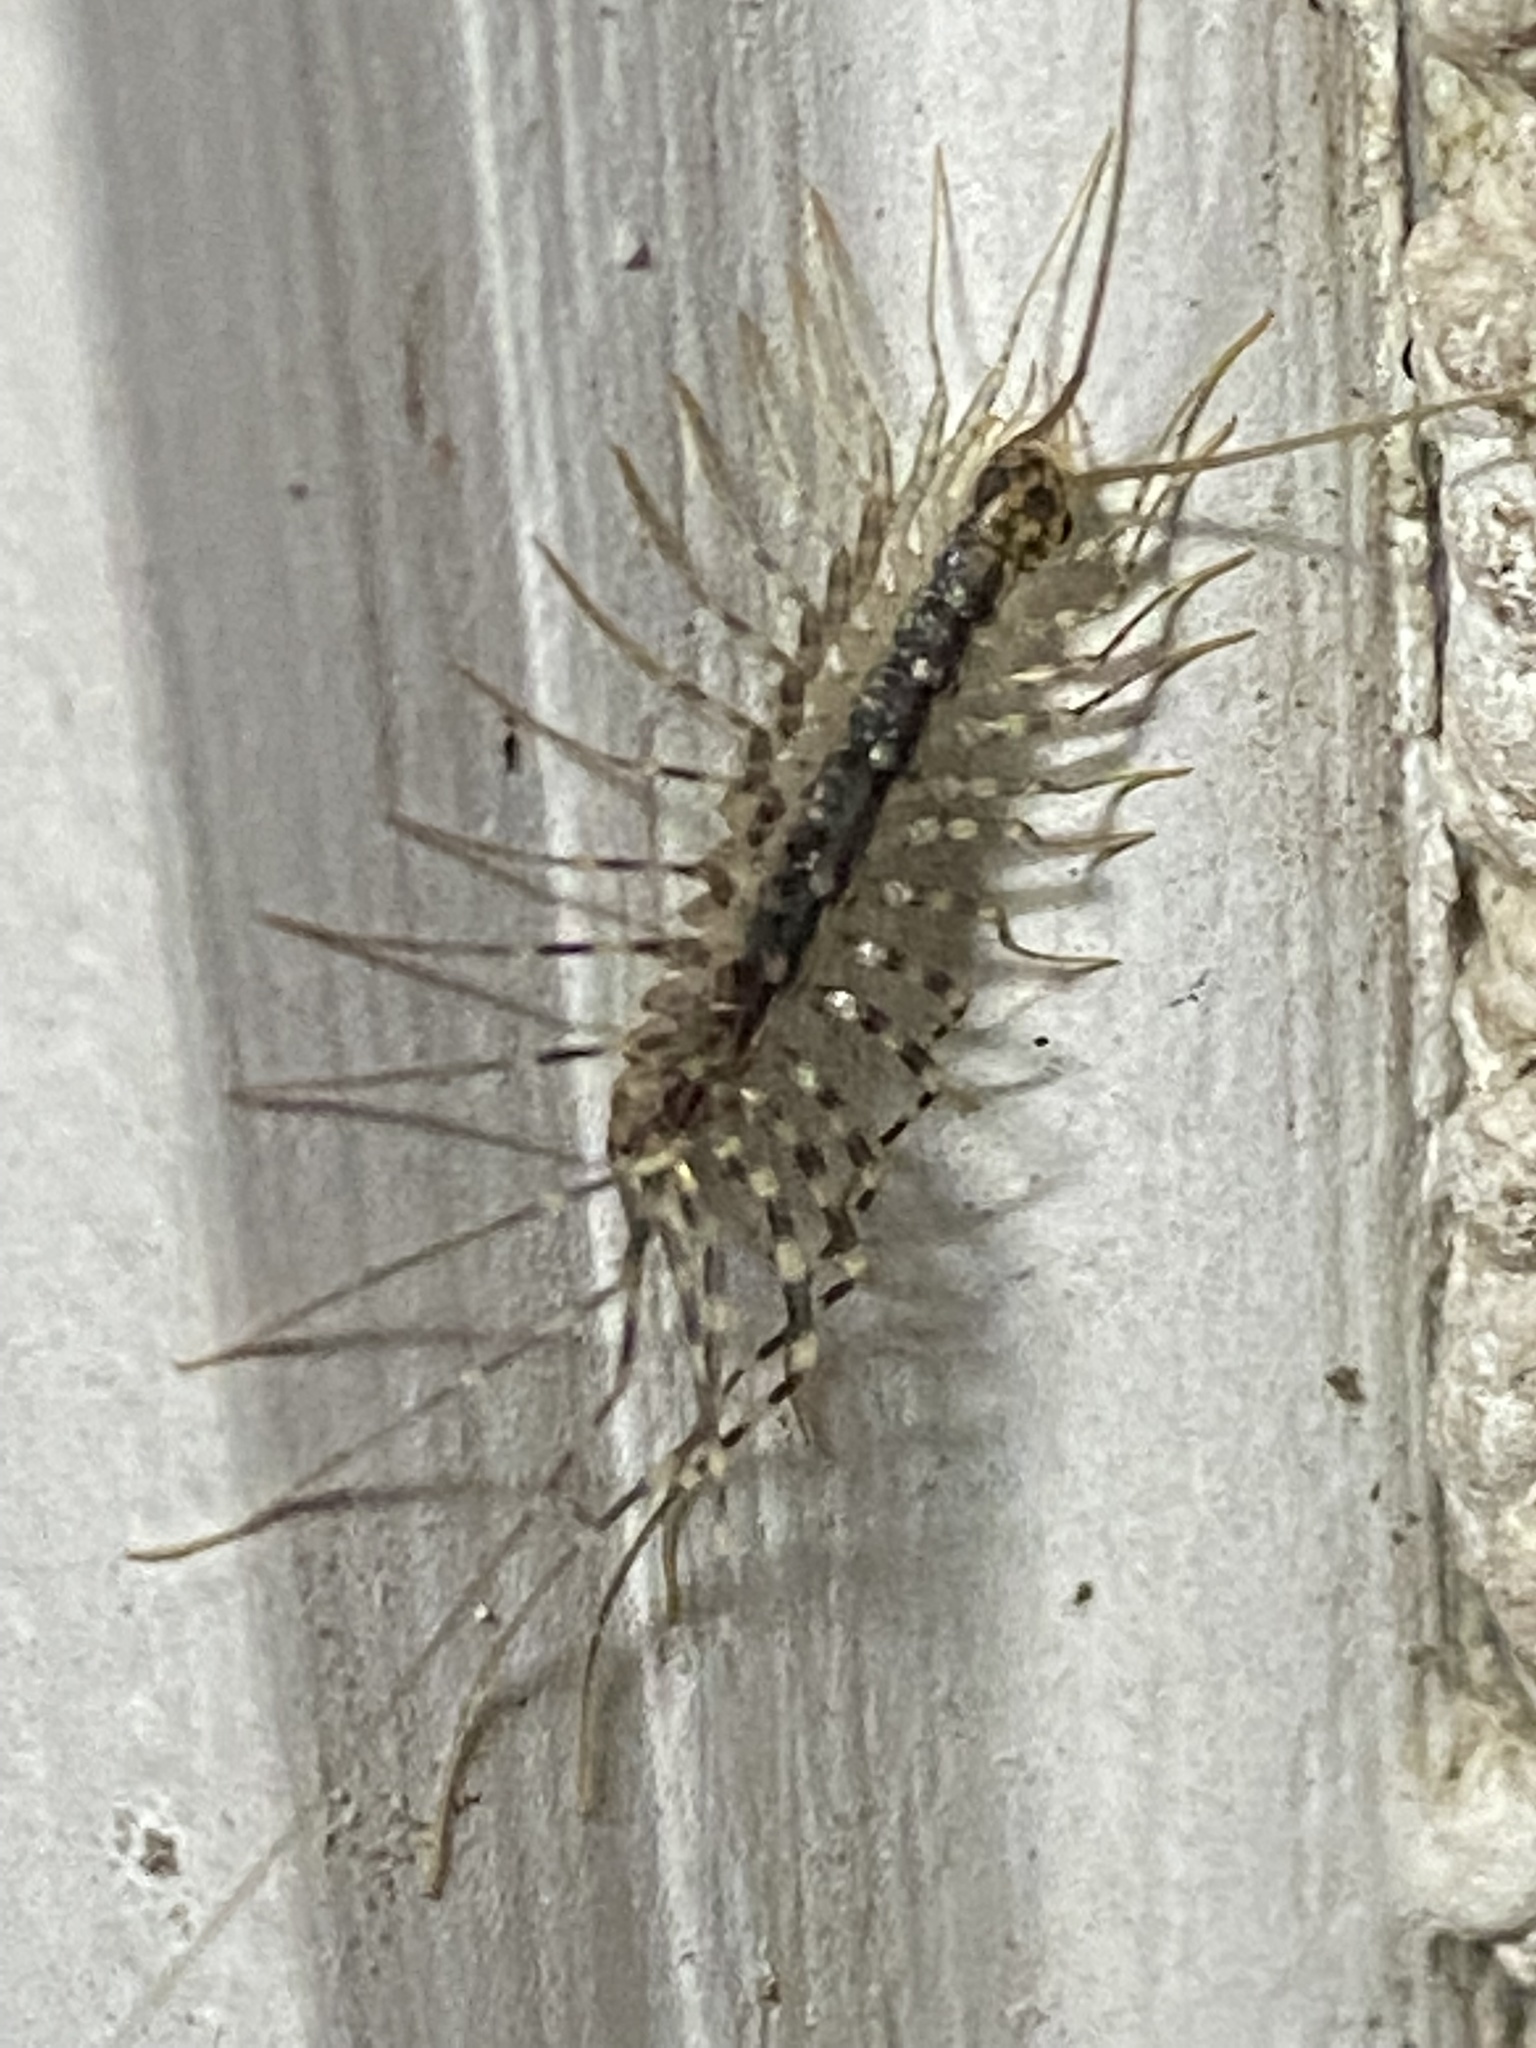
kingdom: Animalia
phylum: Arthropoda
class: Chilopoda
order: Scutigeromorpha
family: Scutigeridae
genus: Scutigera
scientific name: Scutigera coleoptrata
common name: House centipede
